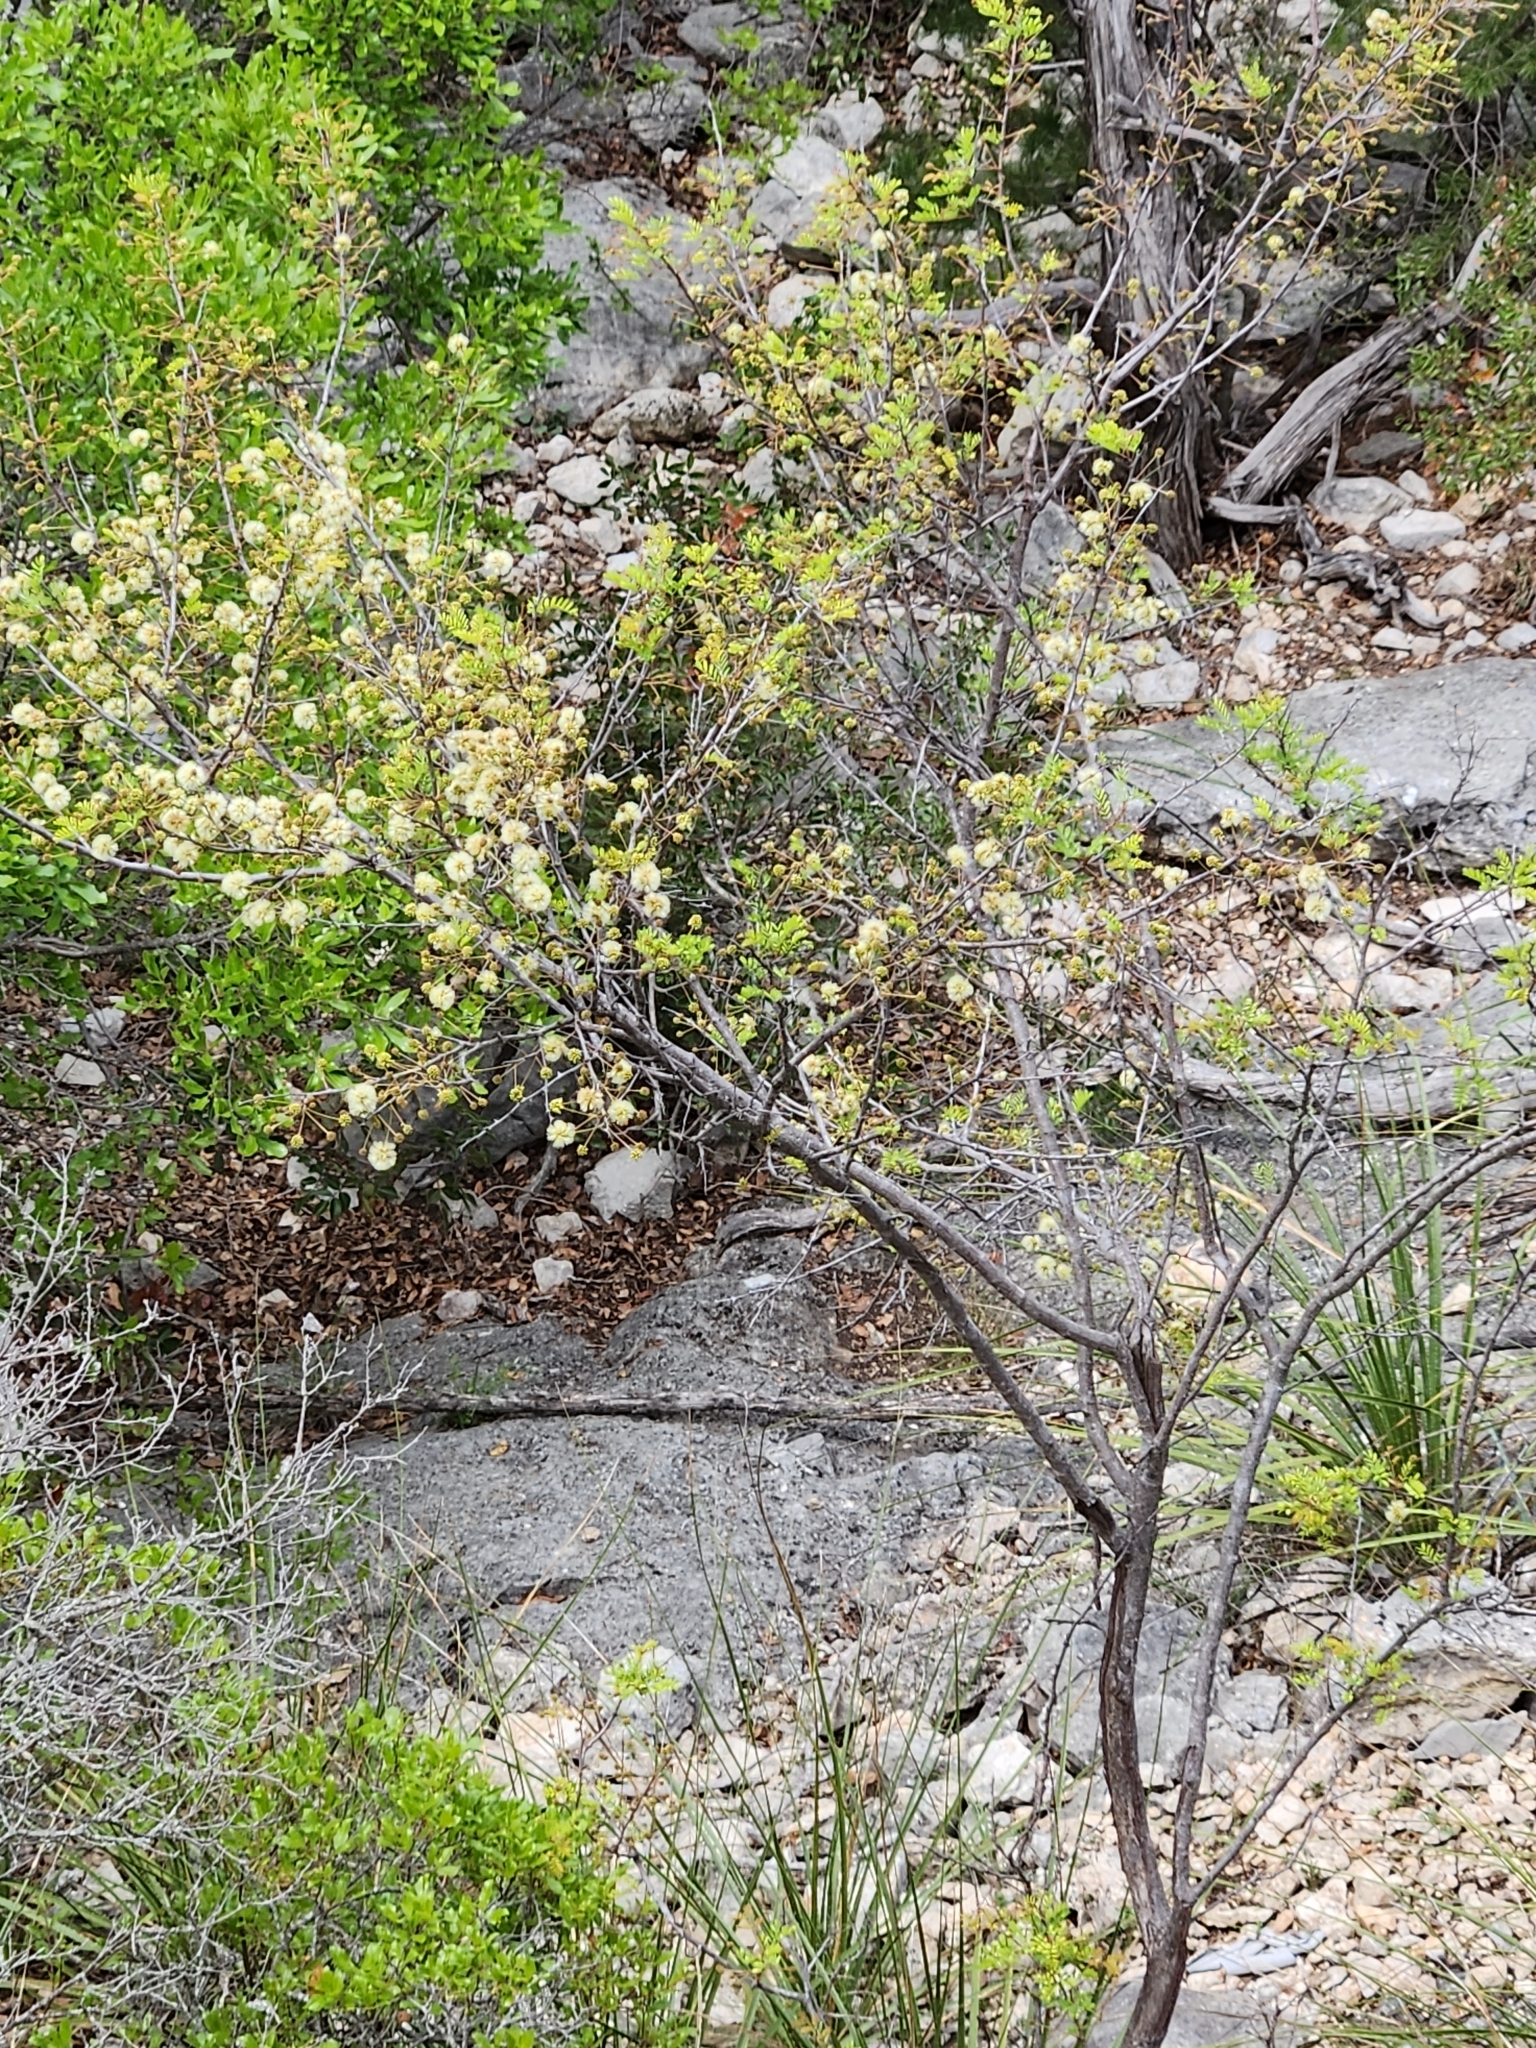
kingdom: Plantae
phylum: Tracheophyta
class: Magnoliopsida
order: Fabales
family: Fabaceae
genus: Senegalia
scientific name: Senegalia roemeriana
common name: Roemer's acacia
